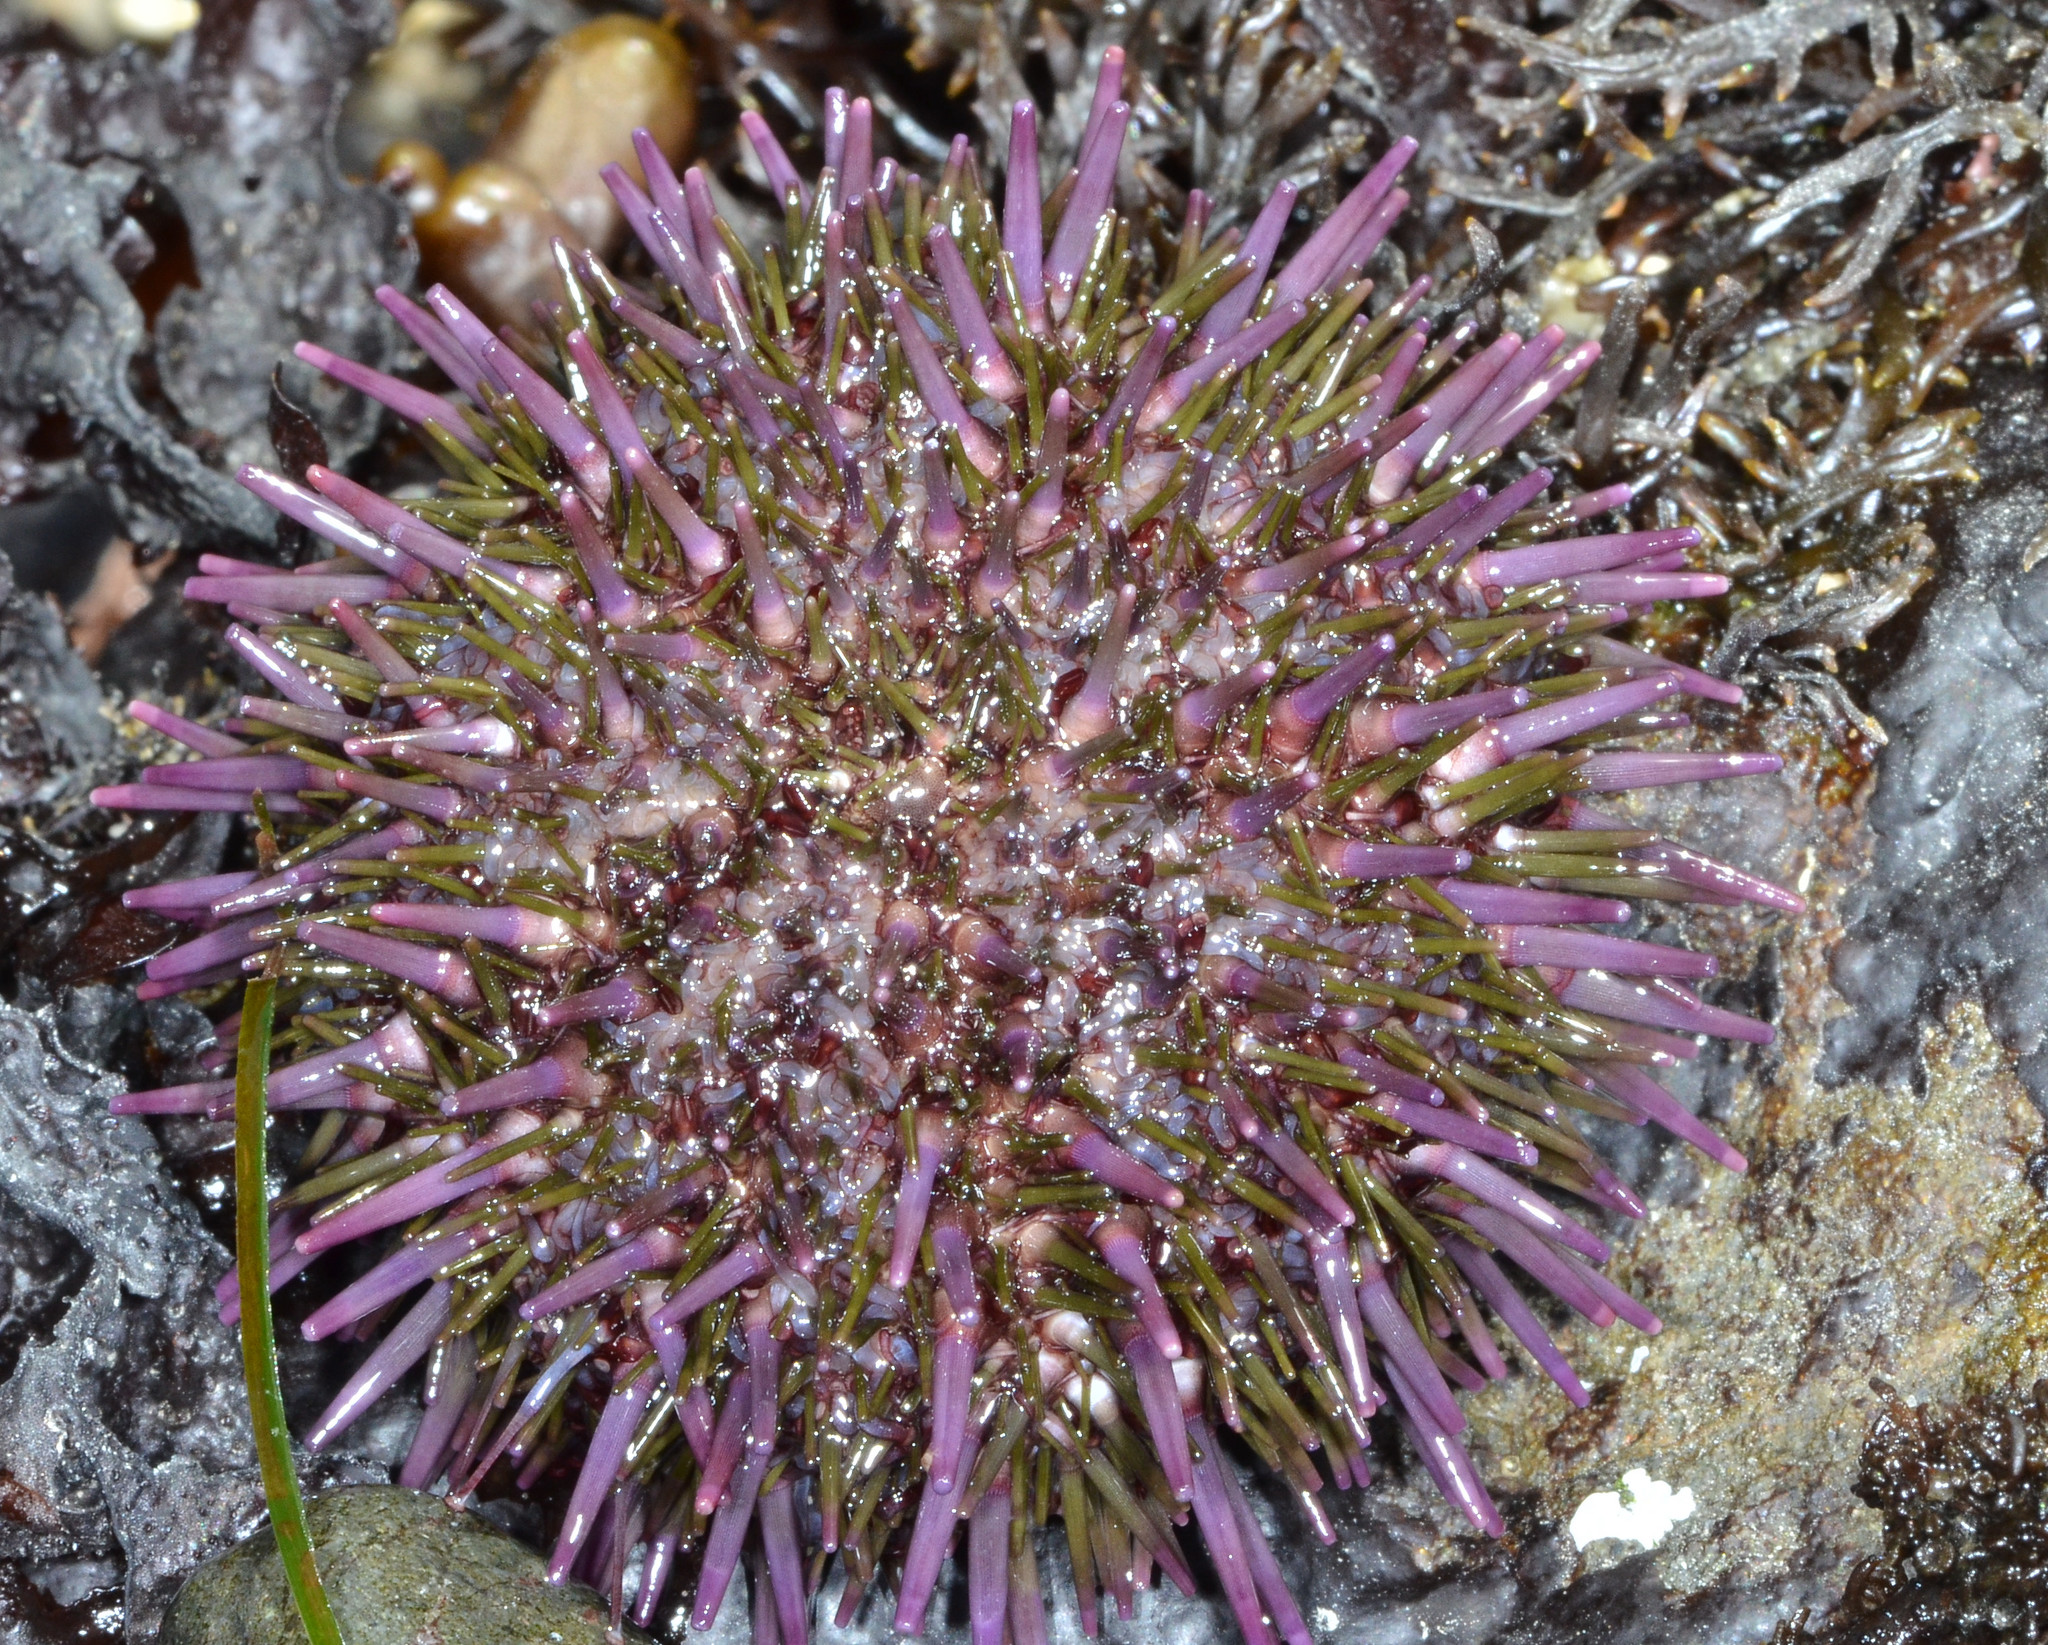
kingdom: Animalia
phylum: Echinodermata
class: Echinoidea
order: Camarodonta
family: Strongylocentrotidae
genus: Strongylocentrotus
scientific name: Strongylocentrotus purpuratus
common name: Purple sea urchin
